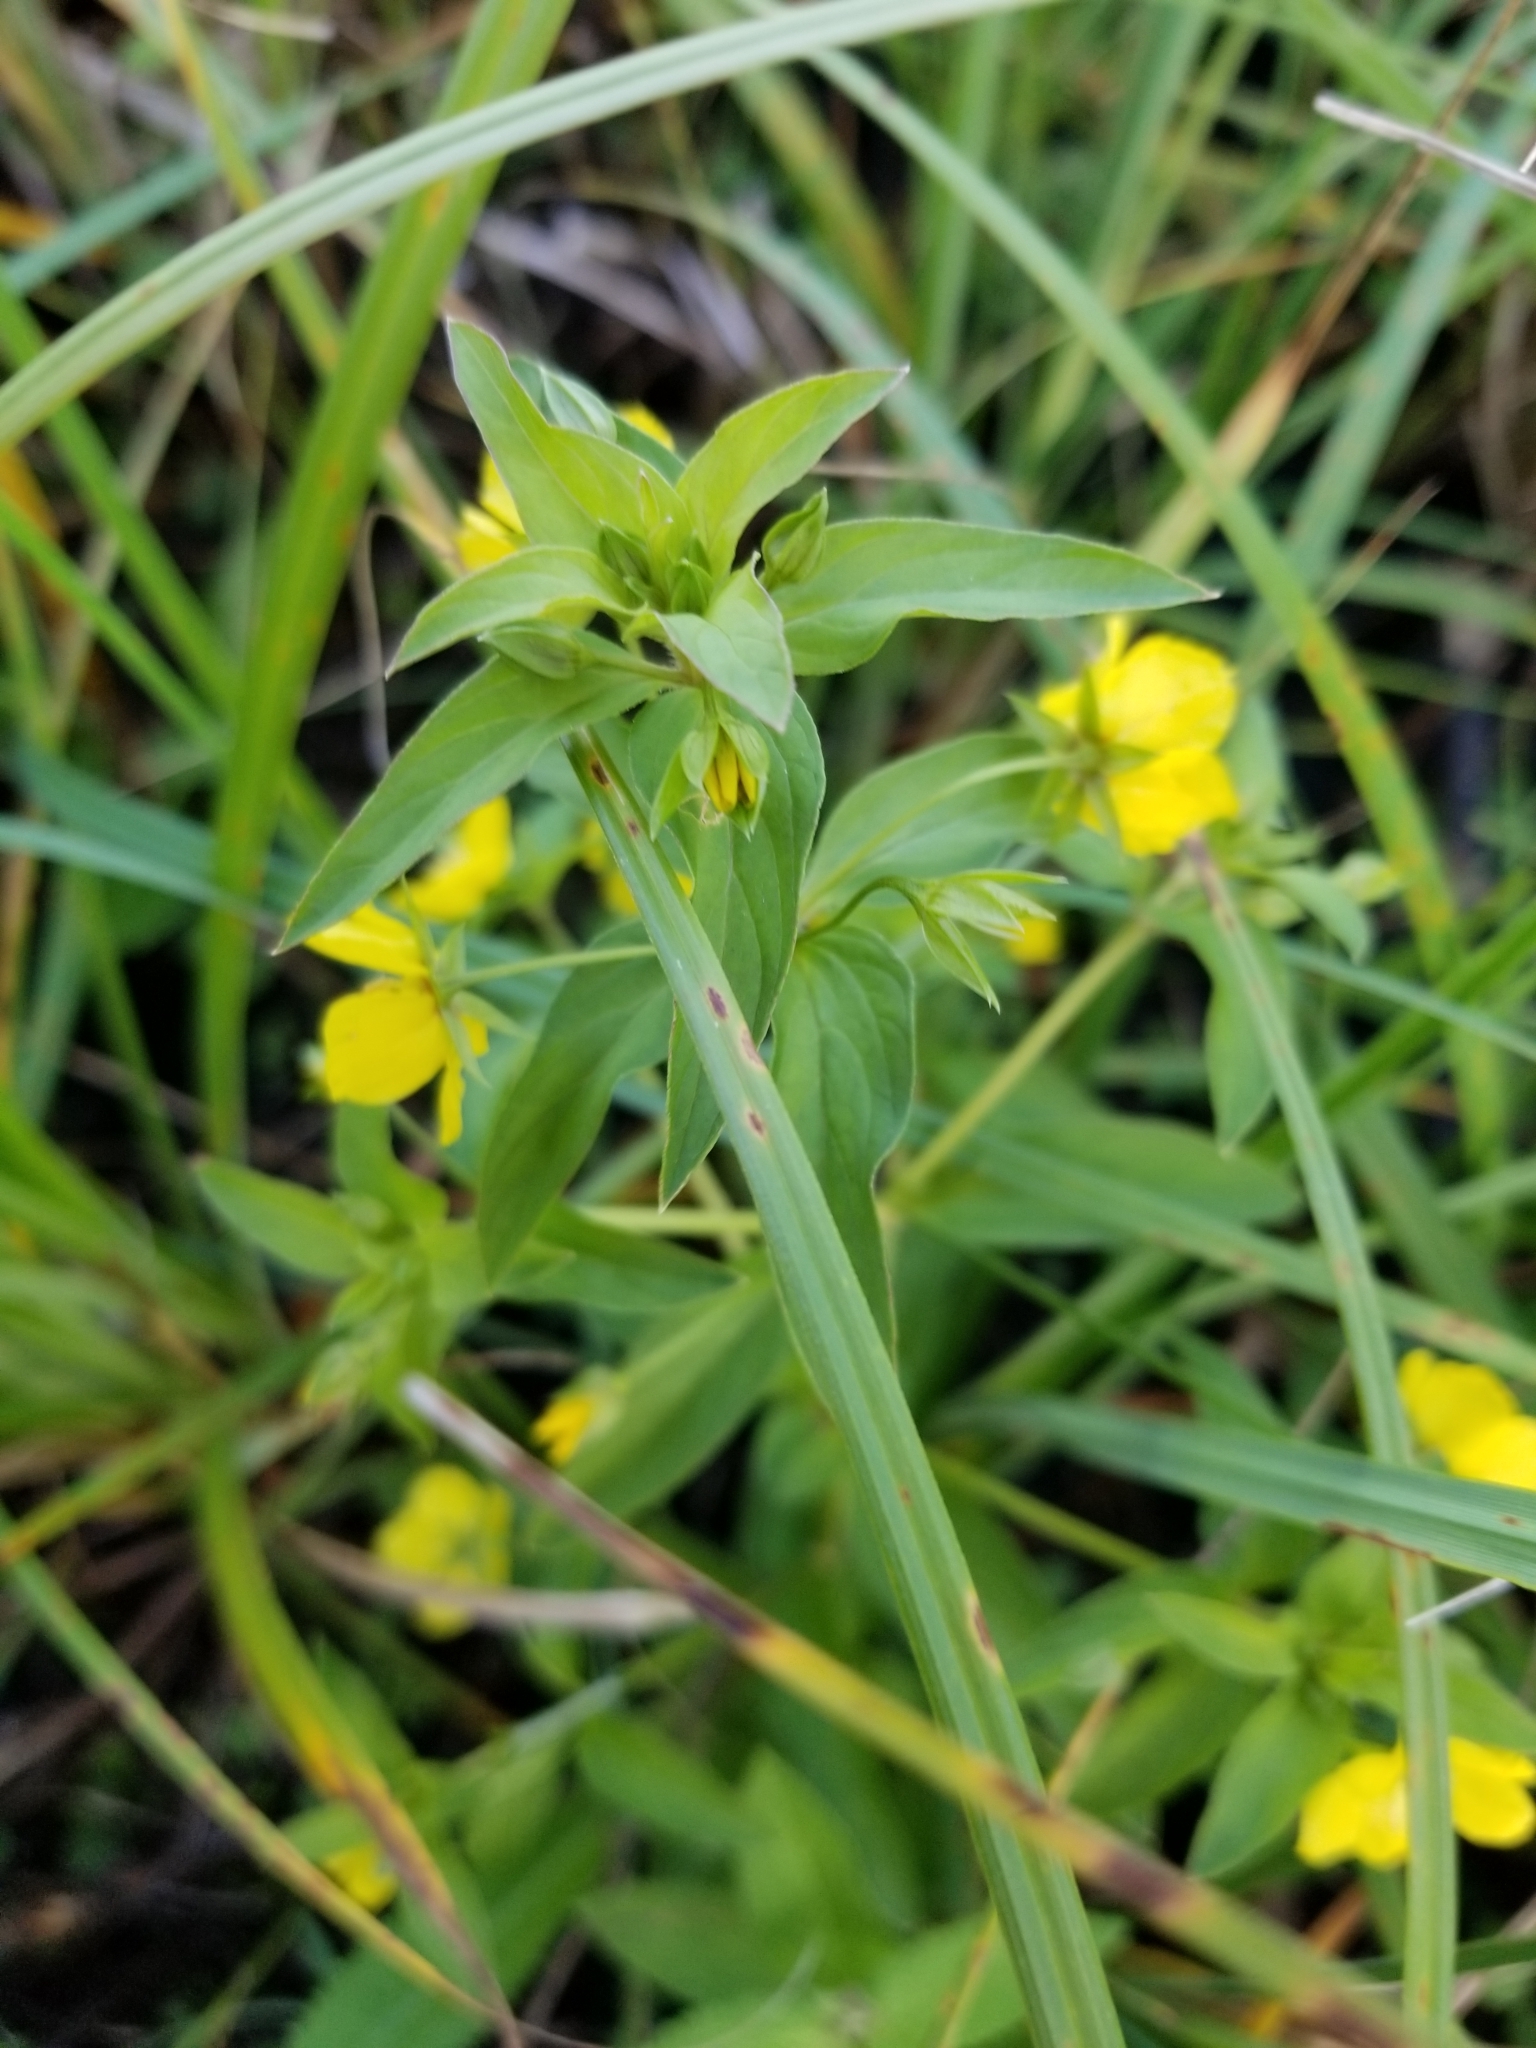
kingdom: Plantae
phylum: Tracheophyta
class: Magnoliopsida
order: Ericales
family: Primulaceae
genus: Lysimachia
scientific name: Lysimachia ciliata
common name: Fringed loosestrife
